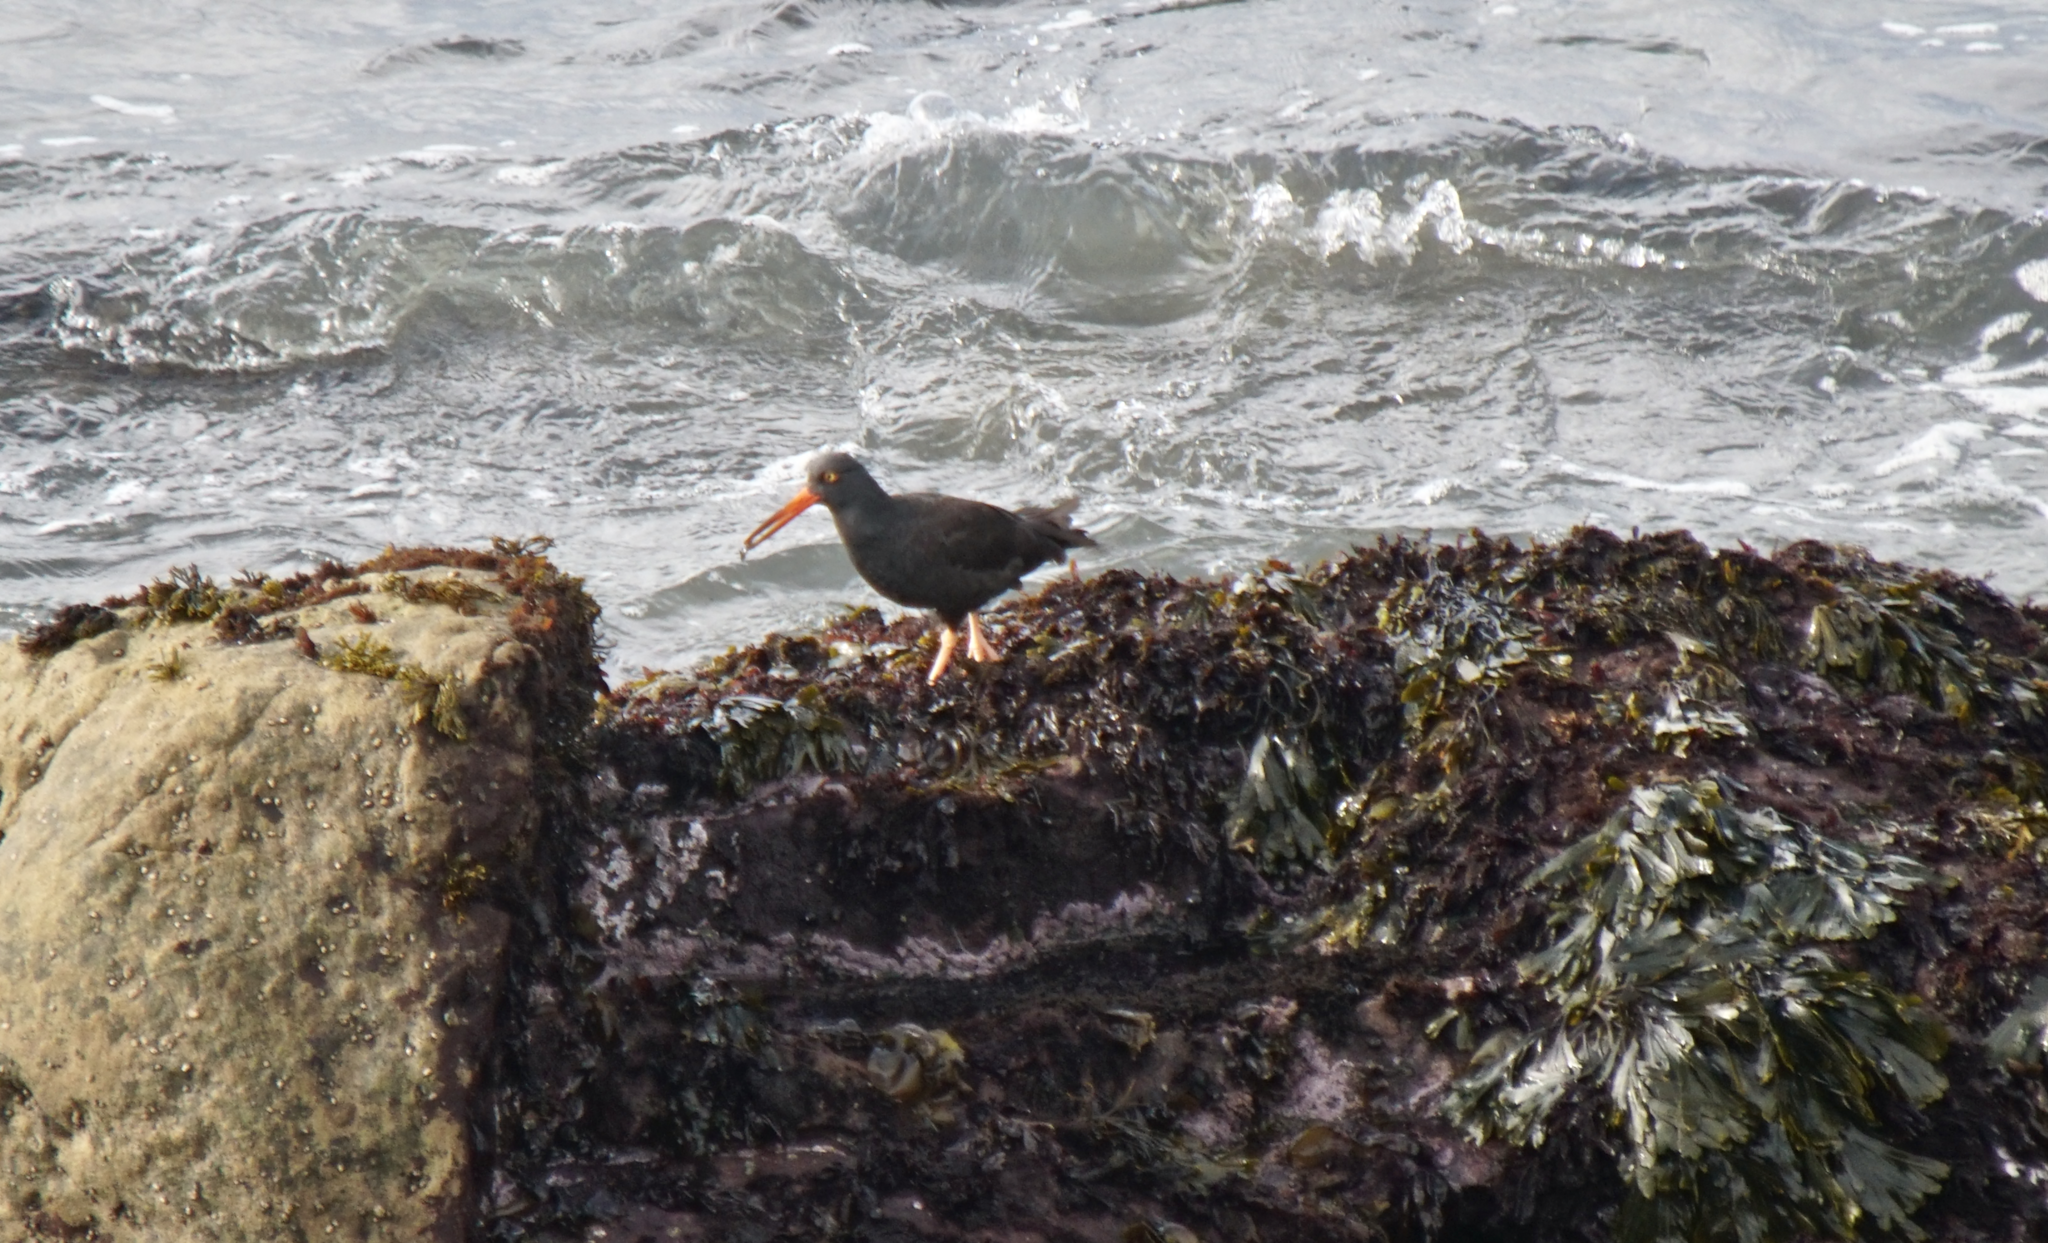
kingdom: Animalia
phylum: Chordata
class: Aves
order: Charadriiformes
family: Haematopodidae
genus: Haematopus
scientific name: Haematopus bachmani
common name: Black oystercatcher
